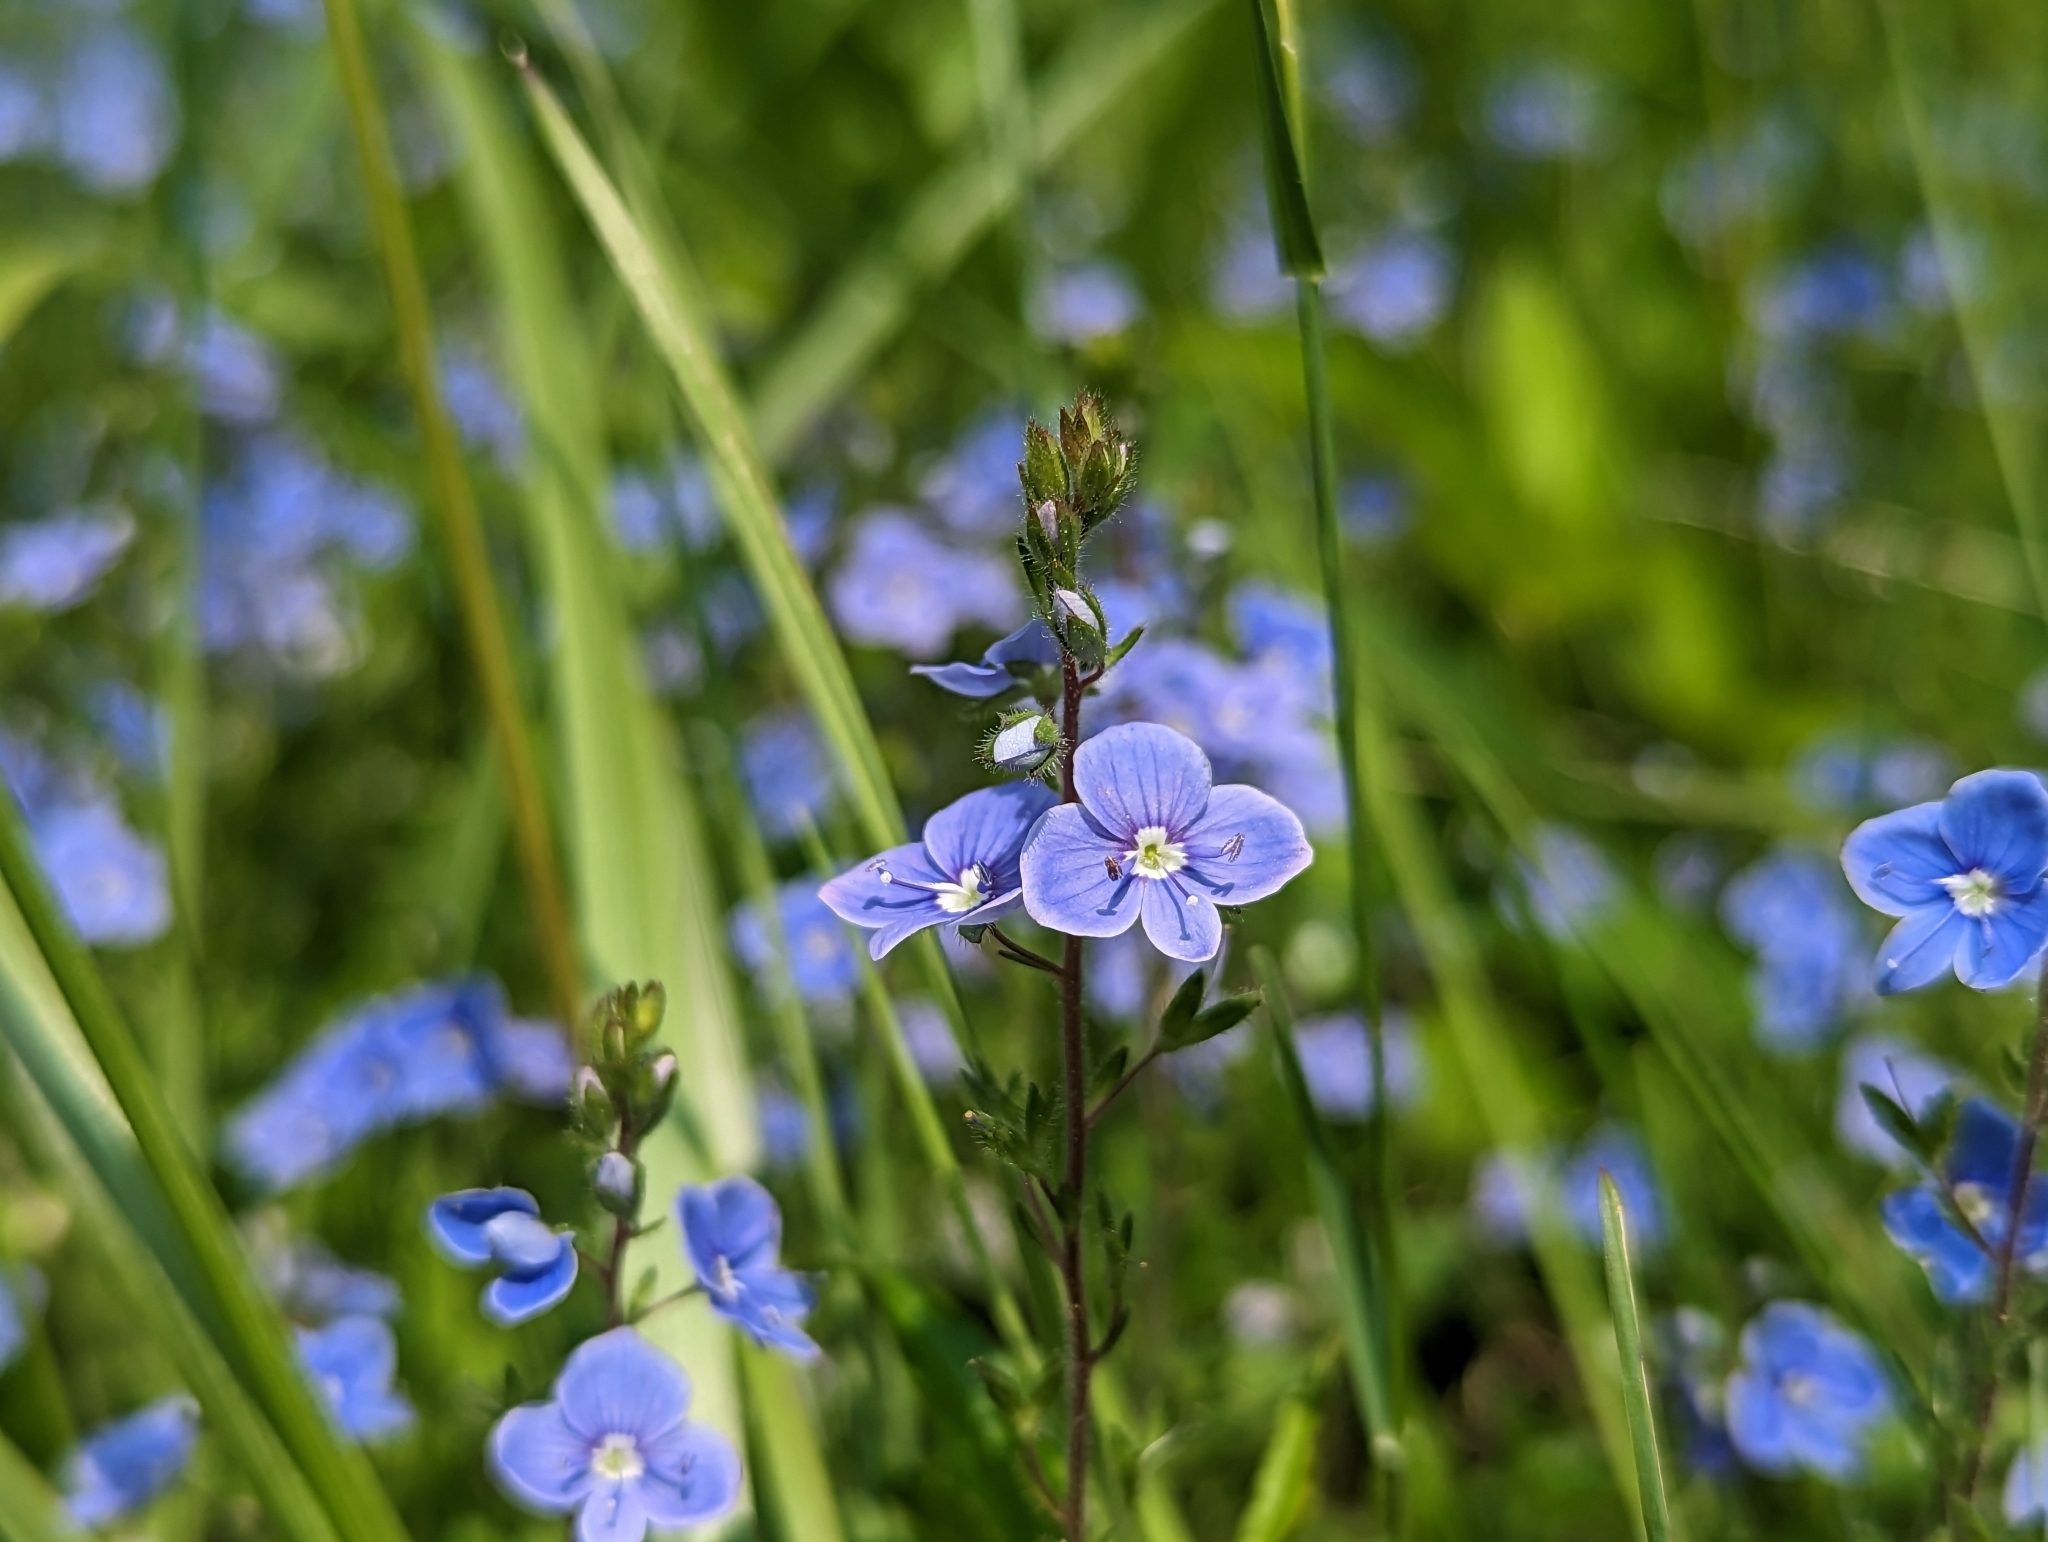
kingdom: Plantae
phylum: Tracheophyta
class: Magnoliopsida
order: Lamiales
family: Plantaginaceae
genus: Veronica
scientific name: Veronica chamaedrys
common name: Germander speedwell
